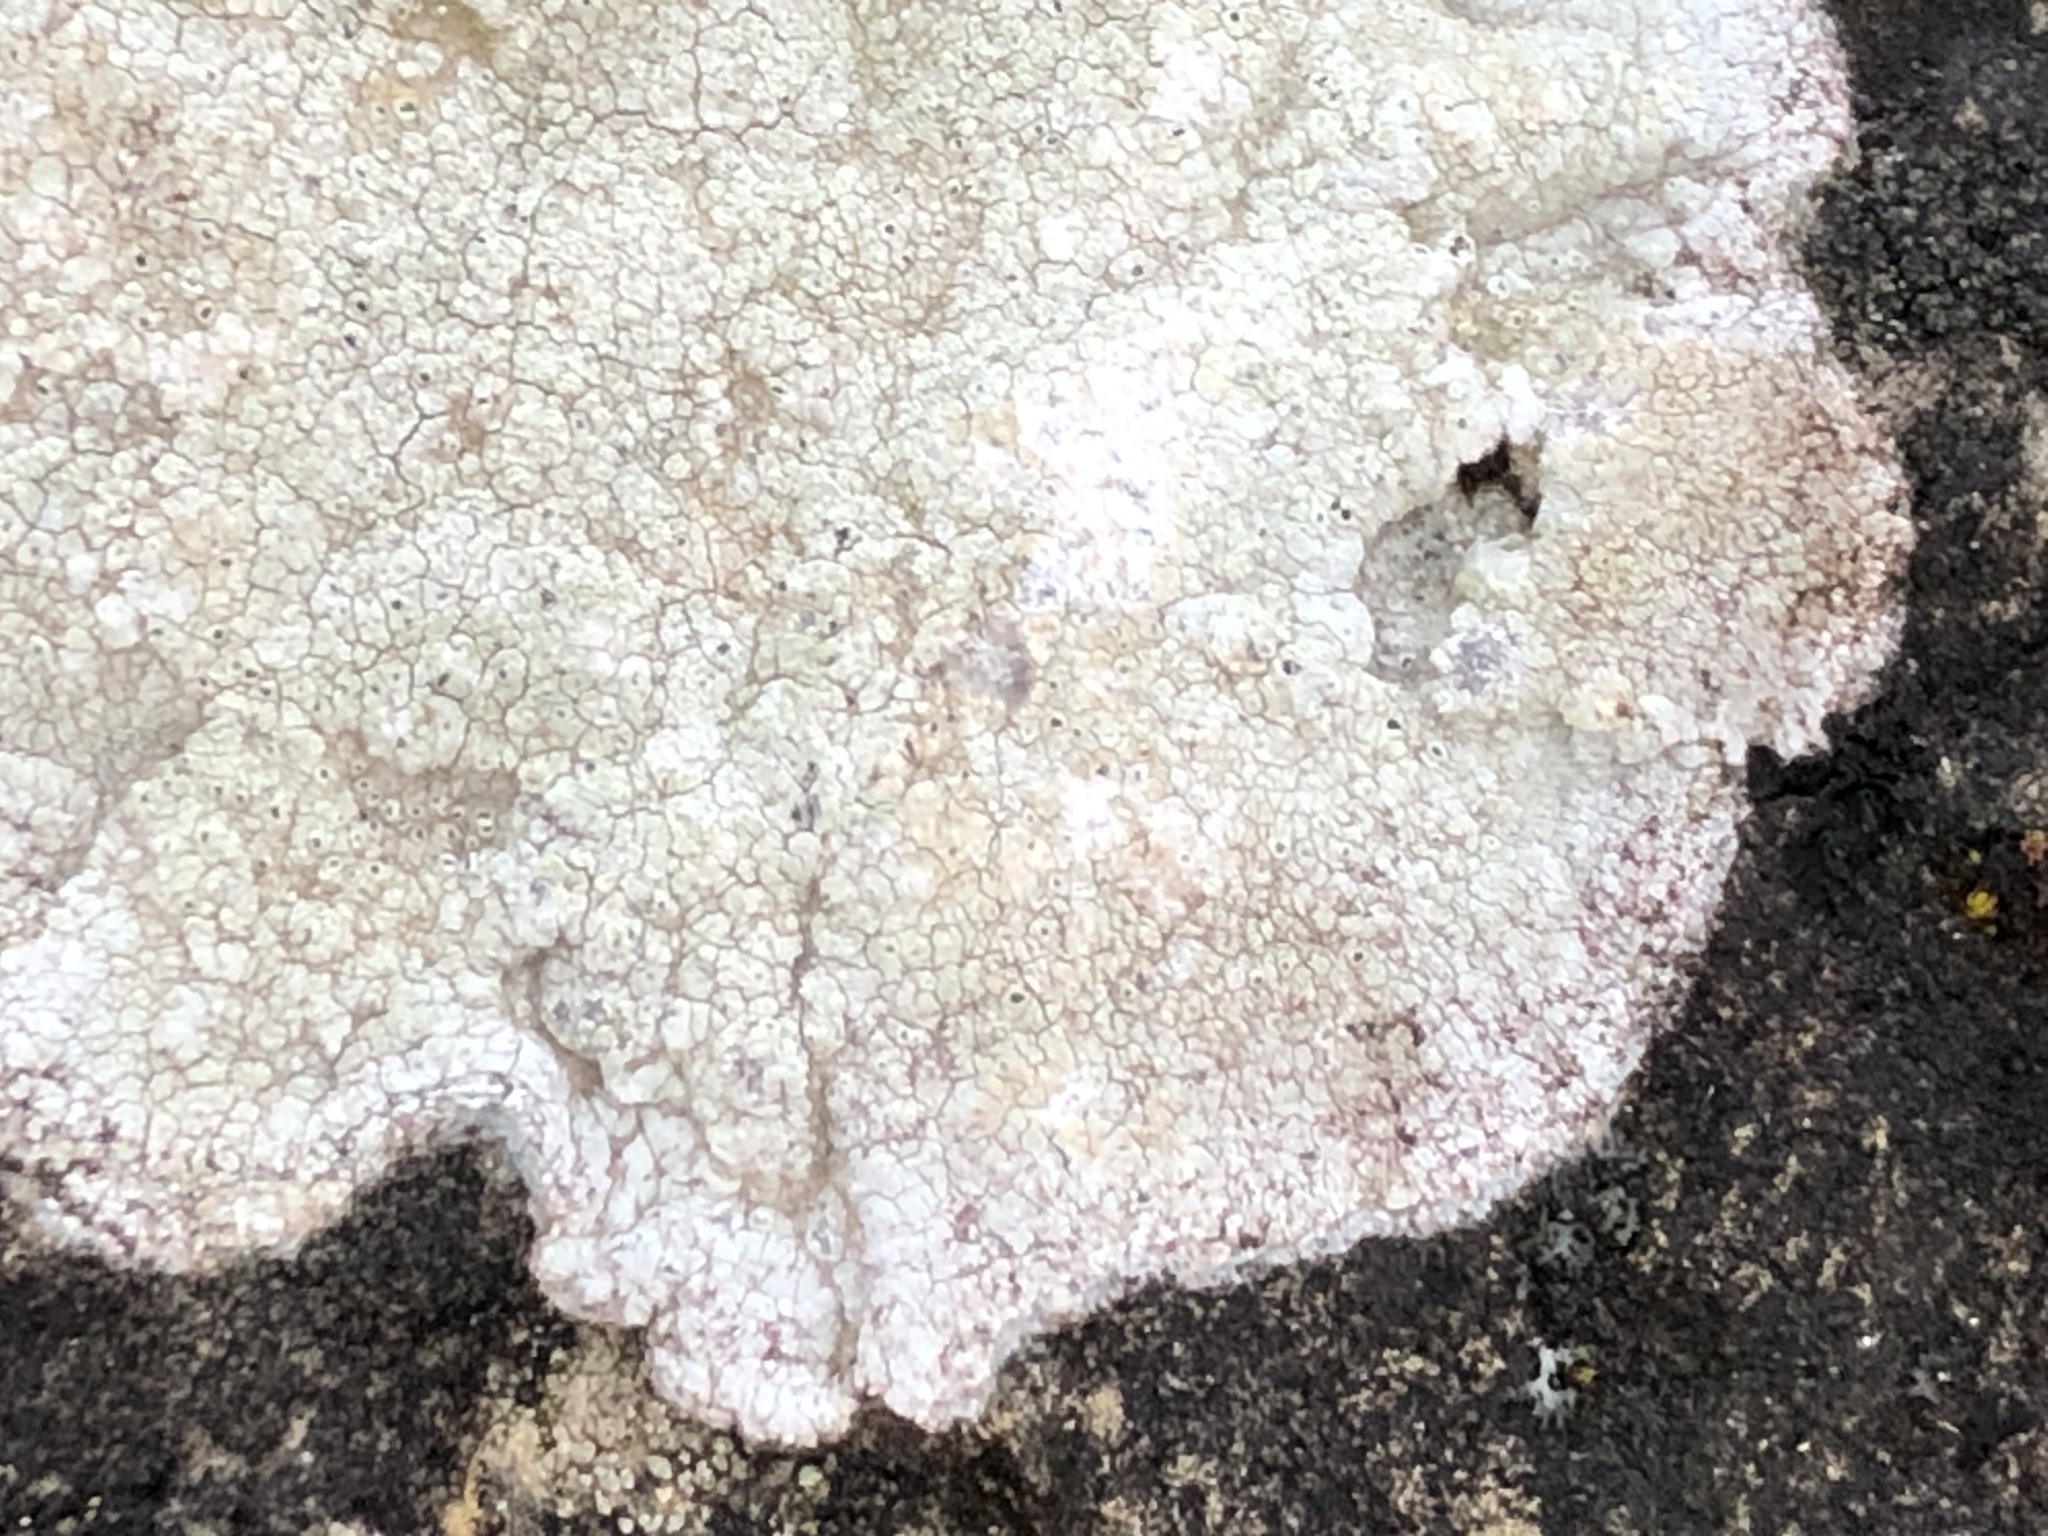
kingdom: Fungi
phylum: Ascomycota
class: Lecanoromycetes
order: Pertusariales
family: Megasporaceae
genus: Circinaria
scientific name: Circinaria calcarea
